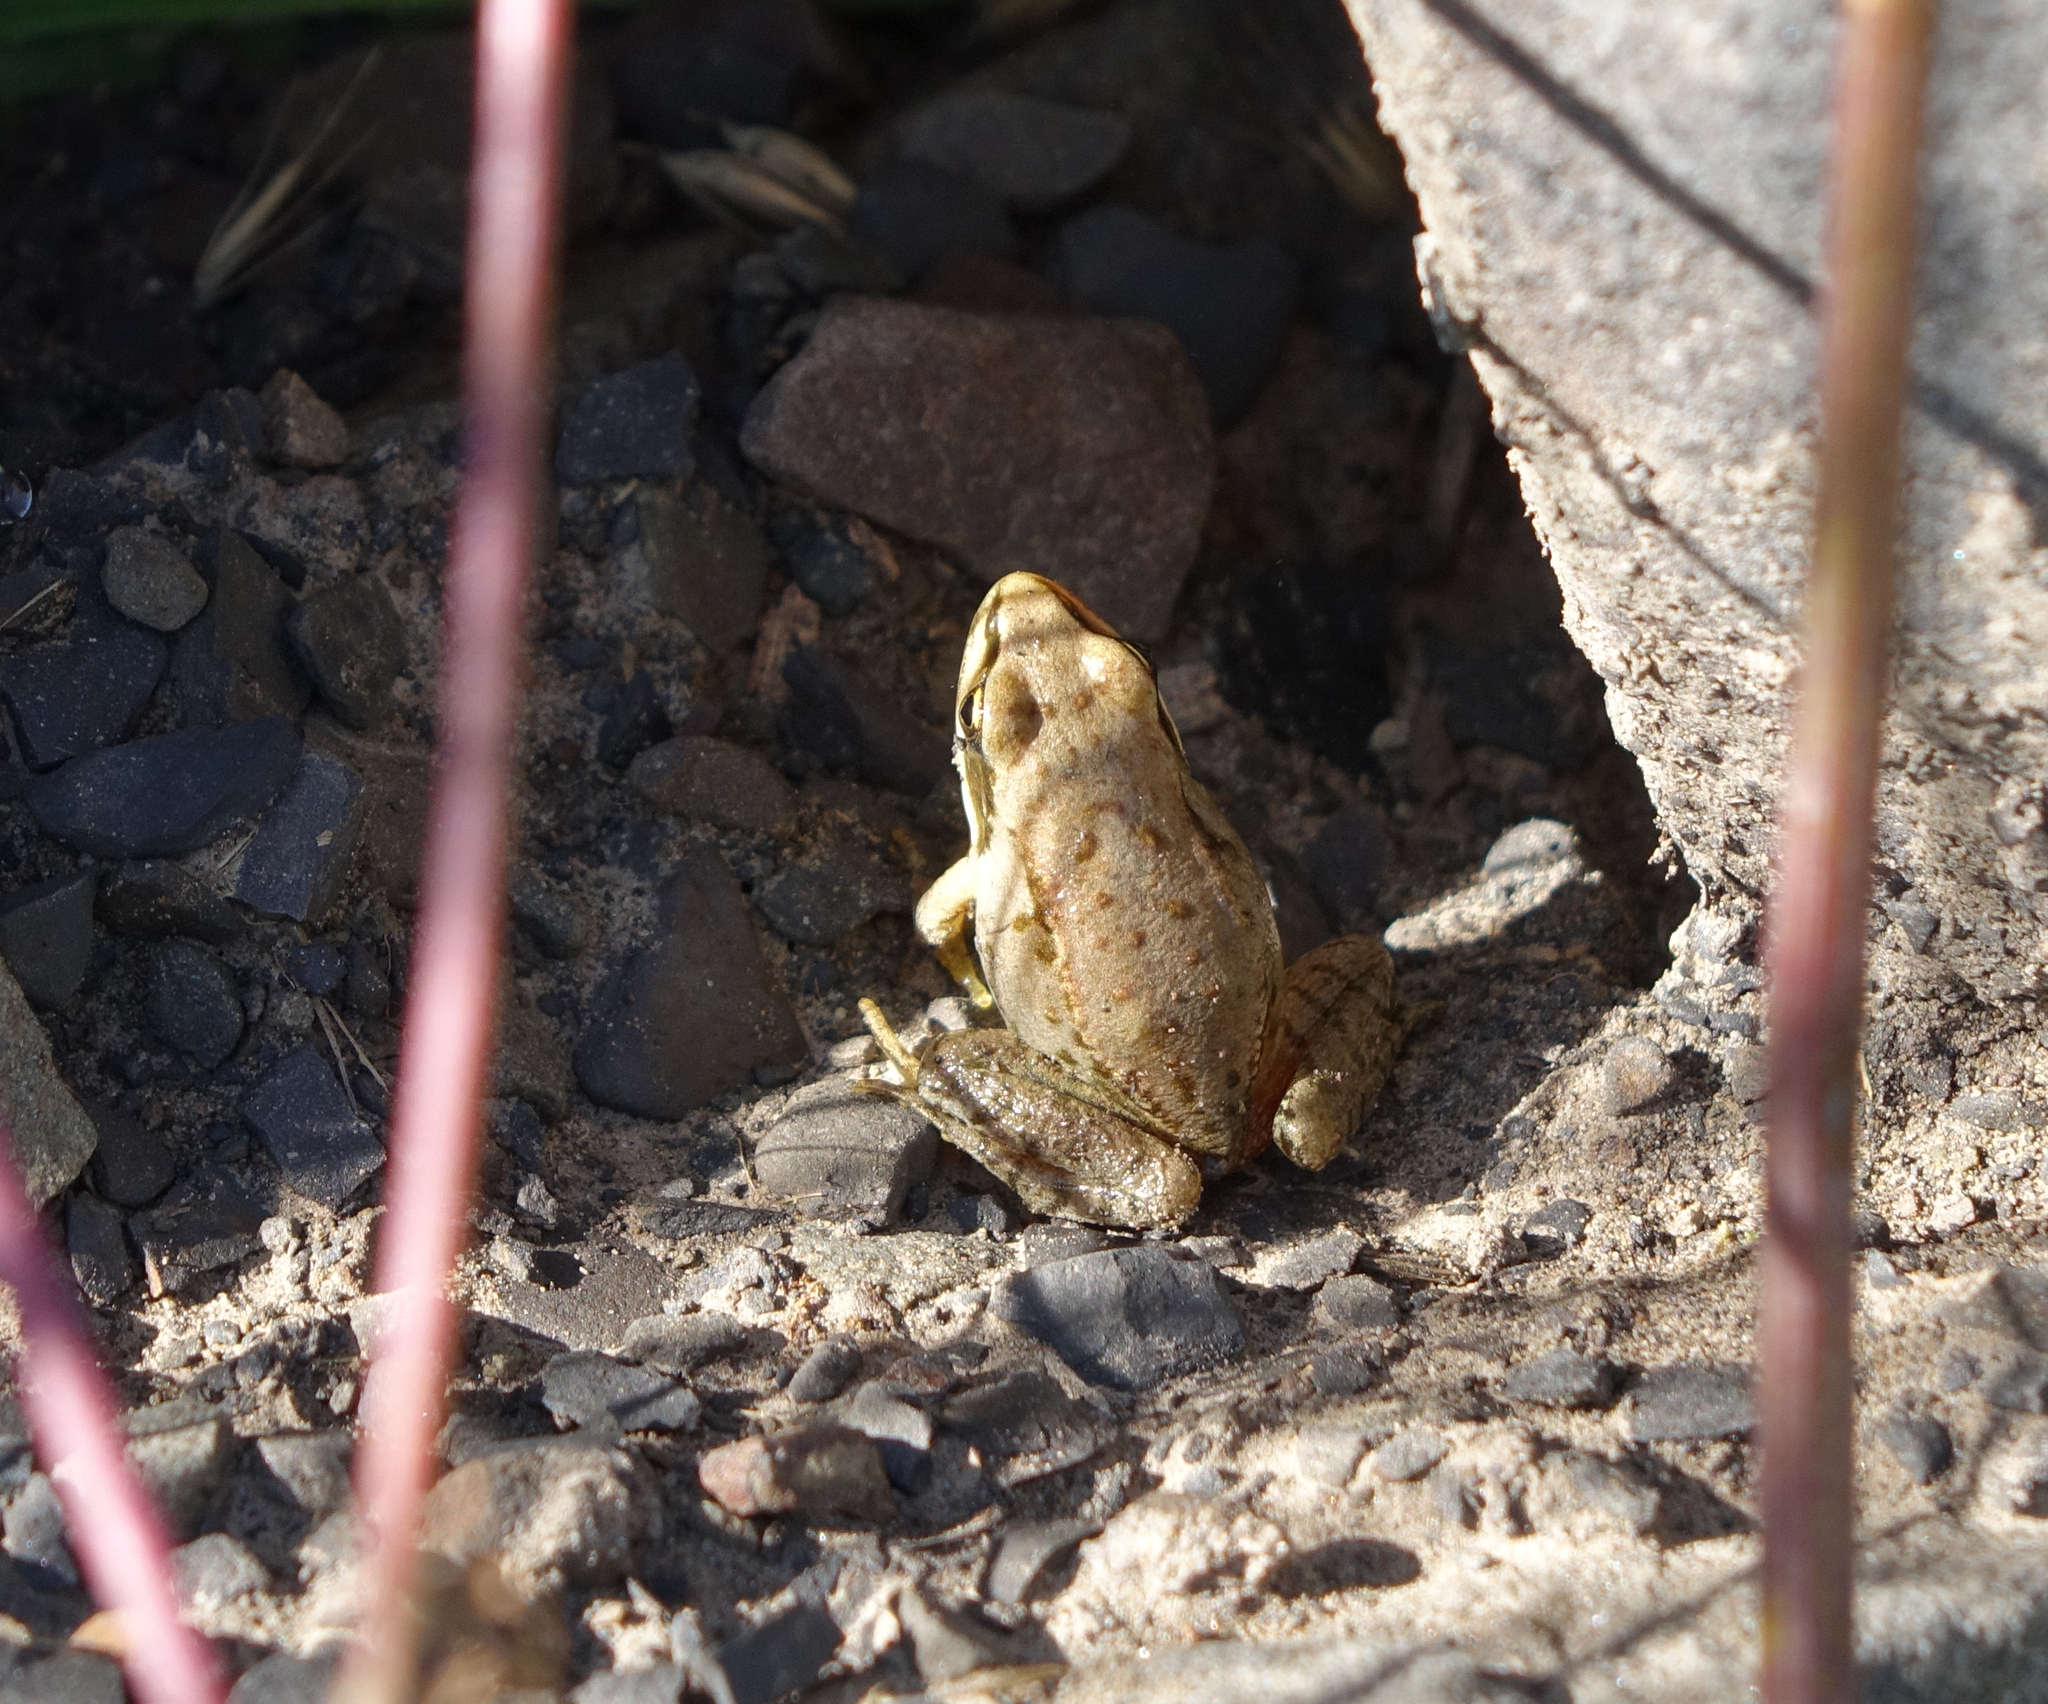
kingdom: Animalia
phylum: Chordata
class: Amphibia
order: Anura
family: Ranidae
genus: Rana
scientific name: Rana macrocnemis
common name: Banded frog
